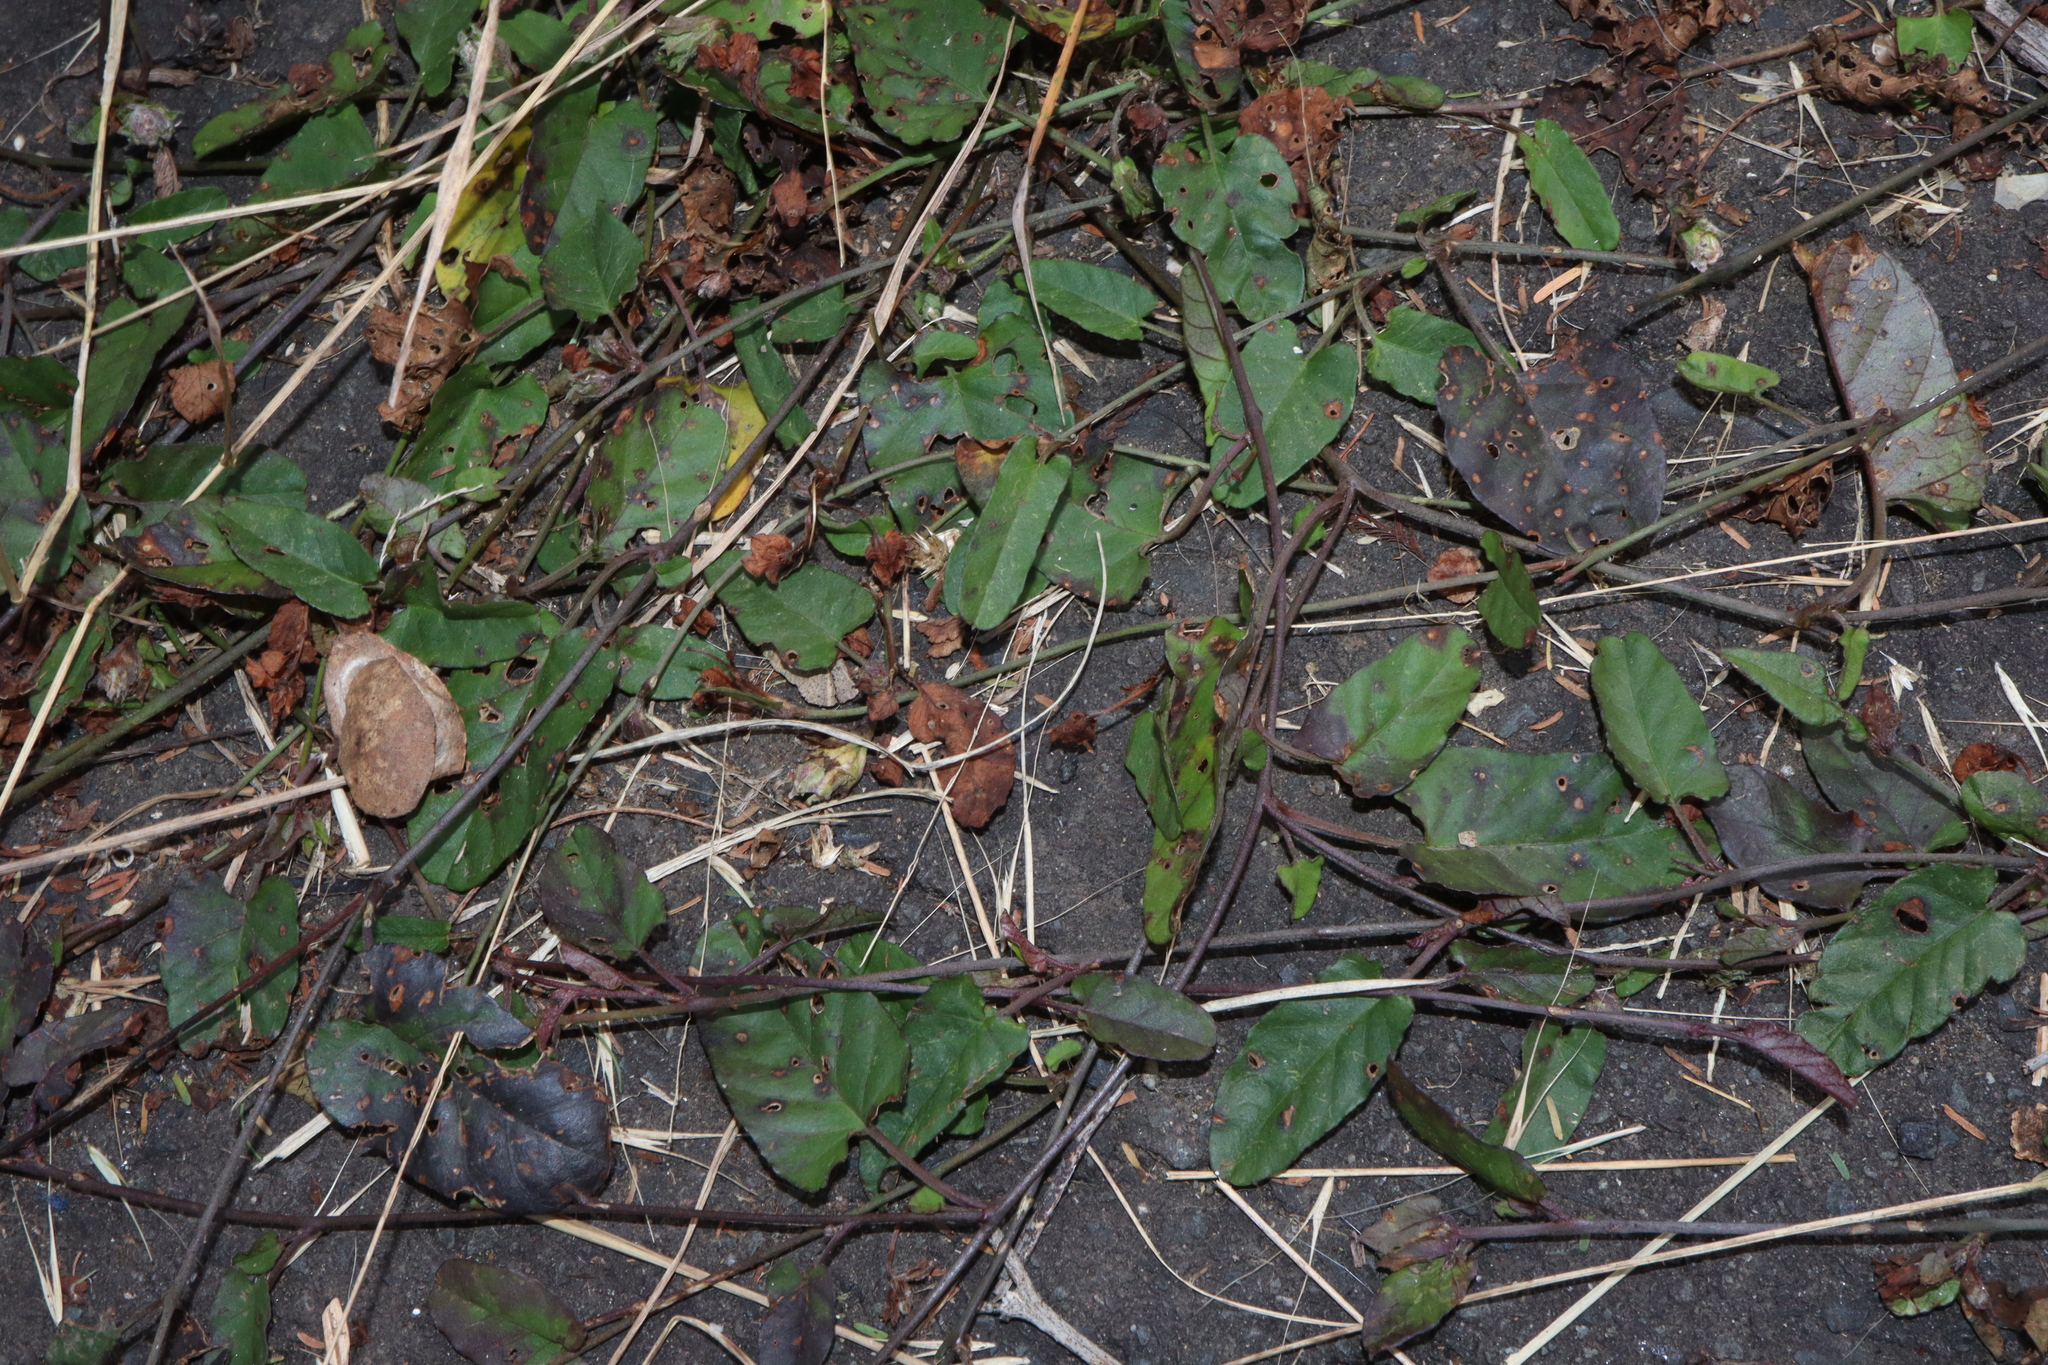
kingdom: Plantae
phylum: Tracheophyta
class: Magnoliopsida
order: Solanales
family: Convolvulaceae
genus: Polymeria
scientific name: Polymeria calycina
